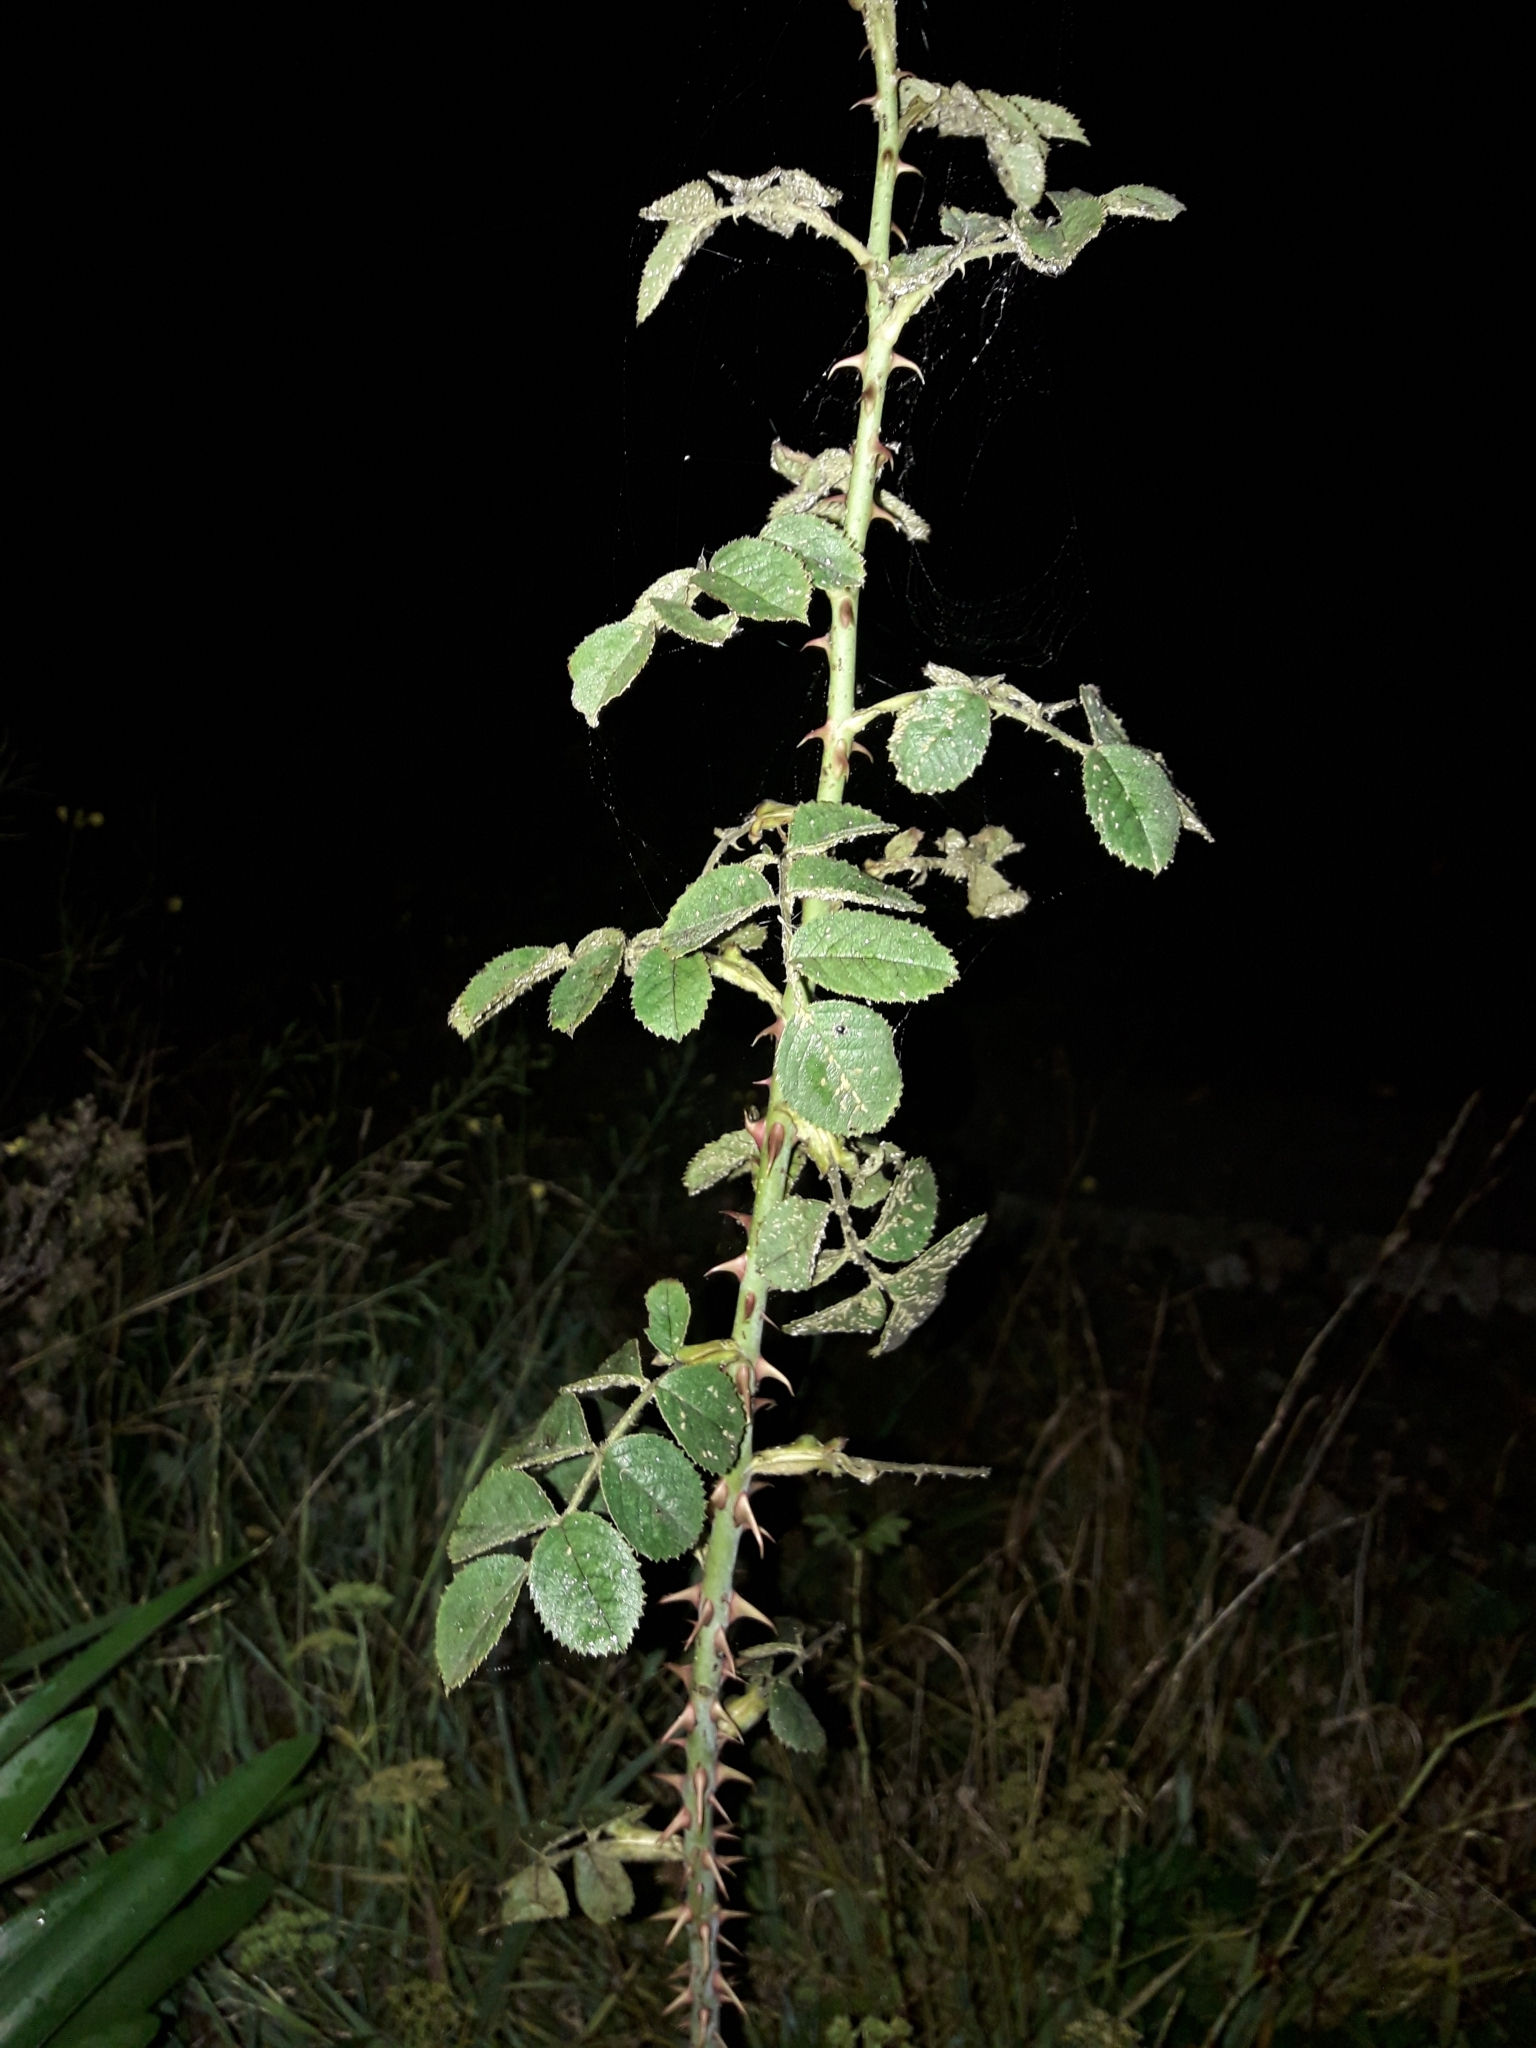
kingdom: Plantae
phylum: Tracheophyta
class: Magnoliopsida
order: Rosales
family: Rosaceae
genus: Rosa
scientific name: Rosa rubiginosa
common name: Sweet-briar
